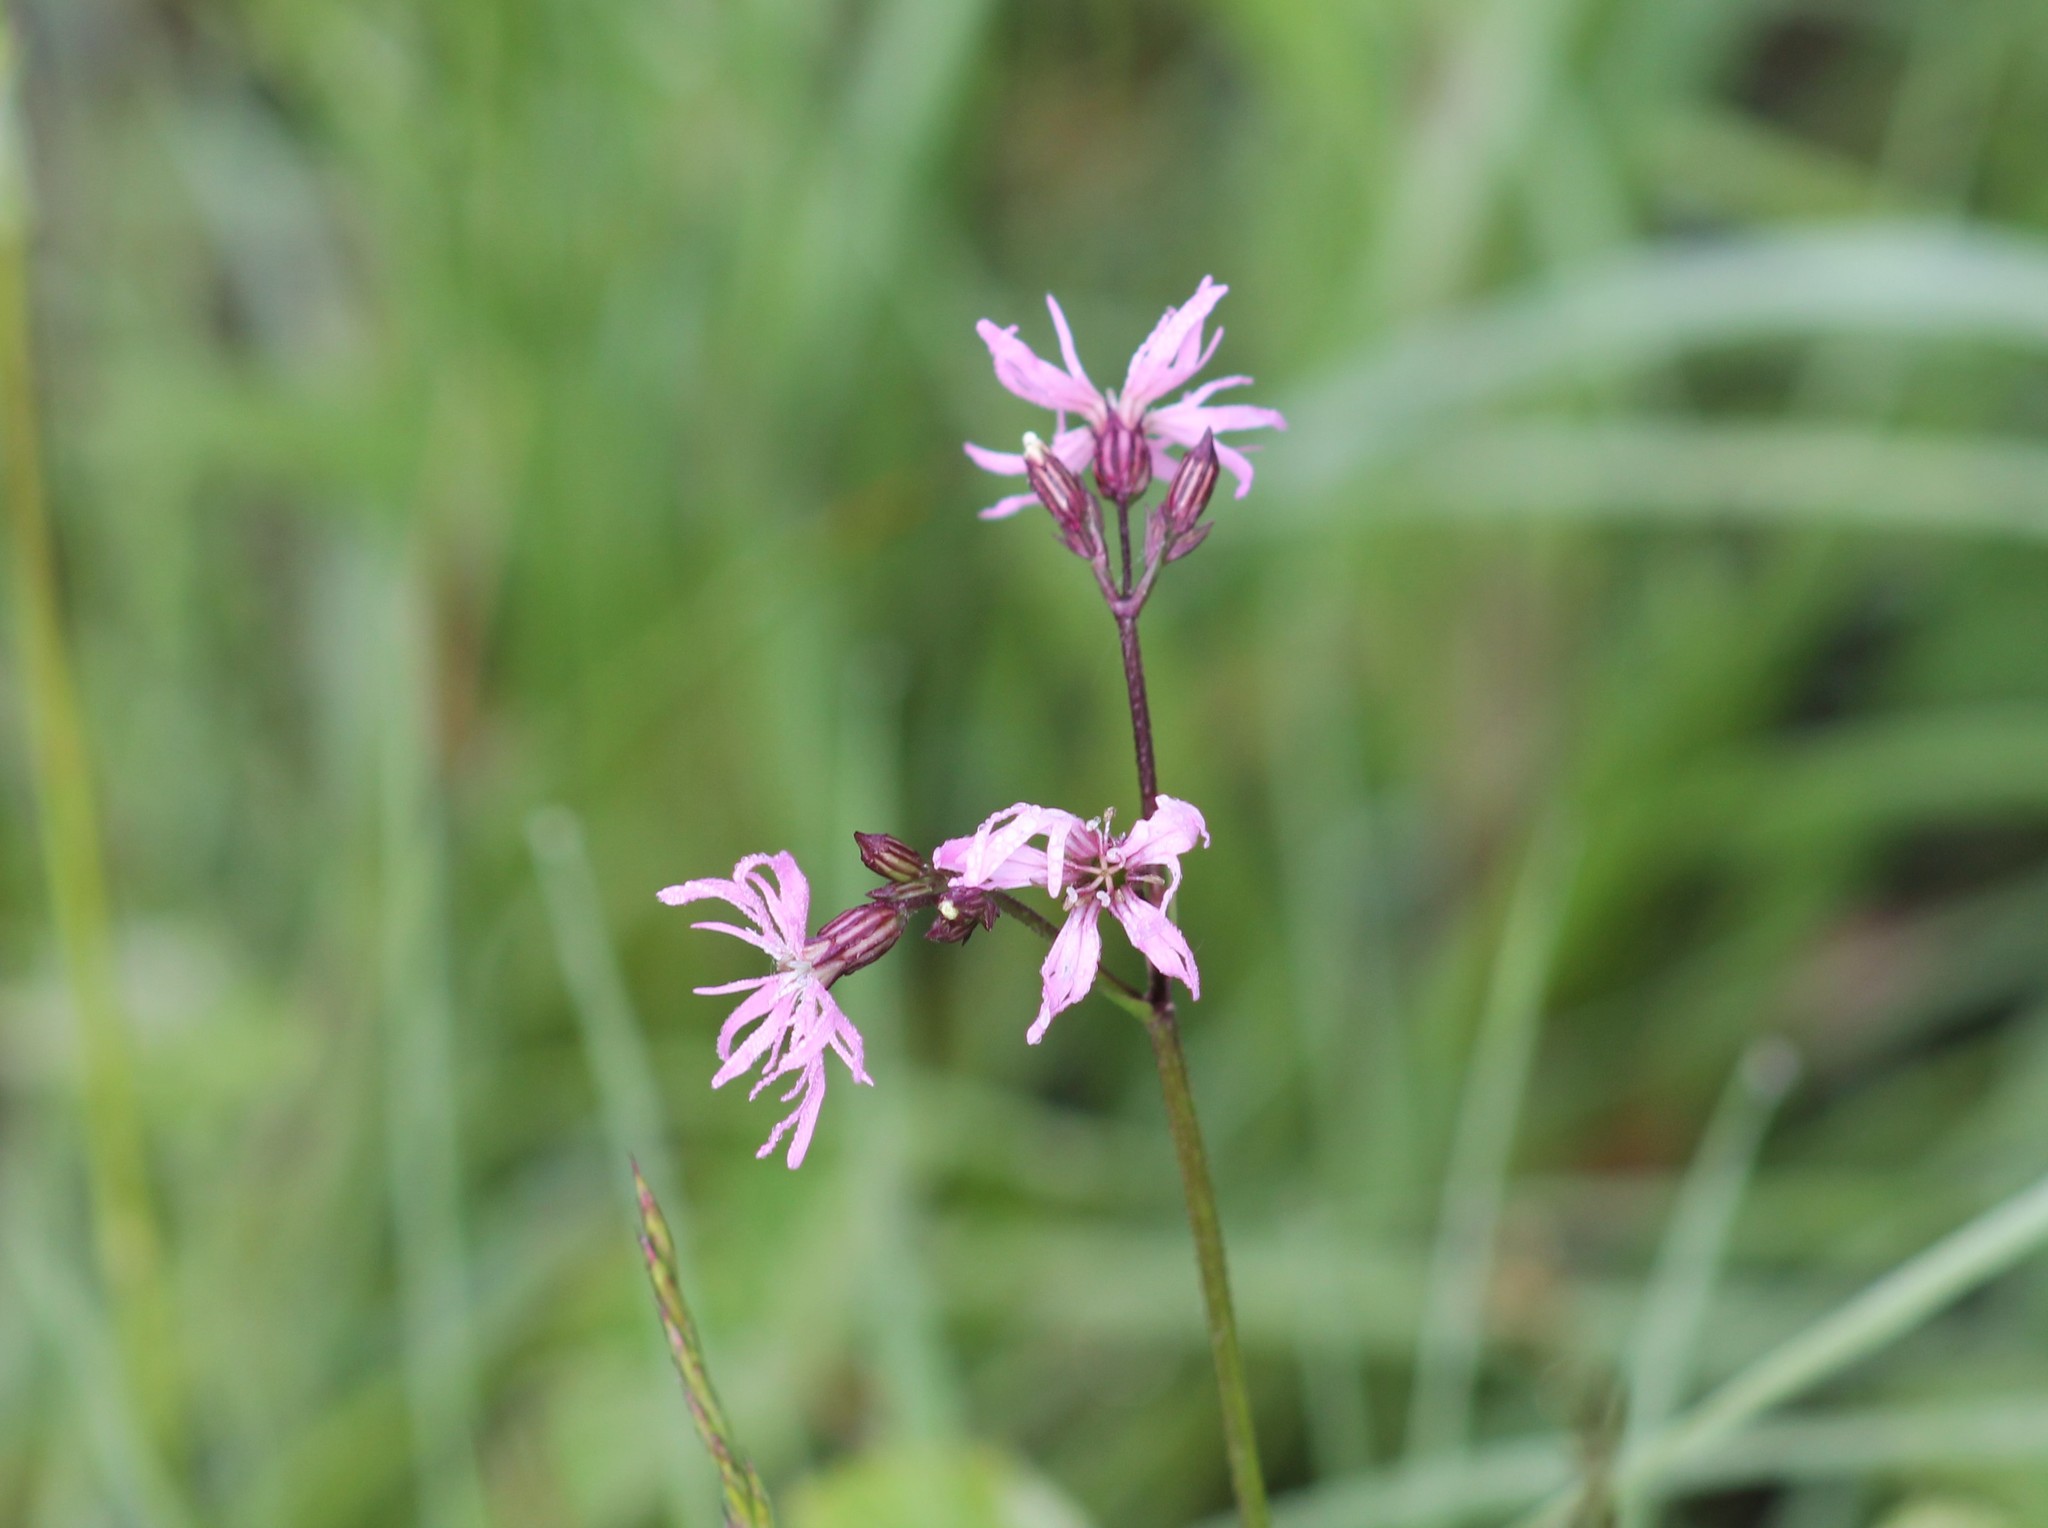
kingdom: Plantae
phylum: Tracheophyta
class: Magnoliopsida
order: Caryophyllales
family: Caryophyllaceae
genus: Silene
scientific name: Silene flos-cuculi
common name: Ragged-robin
